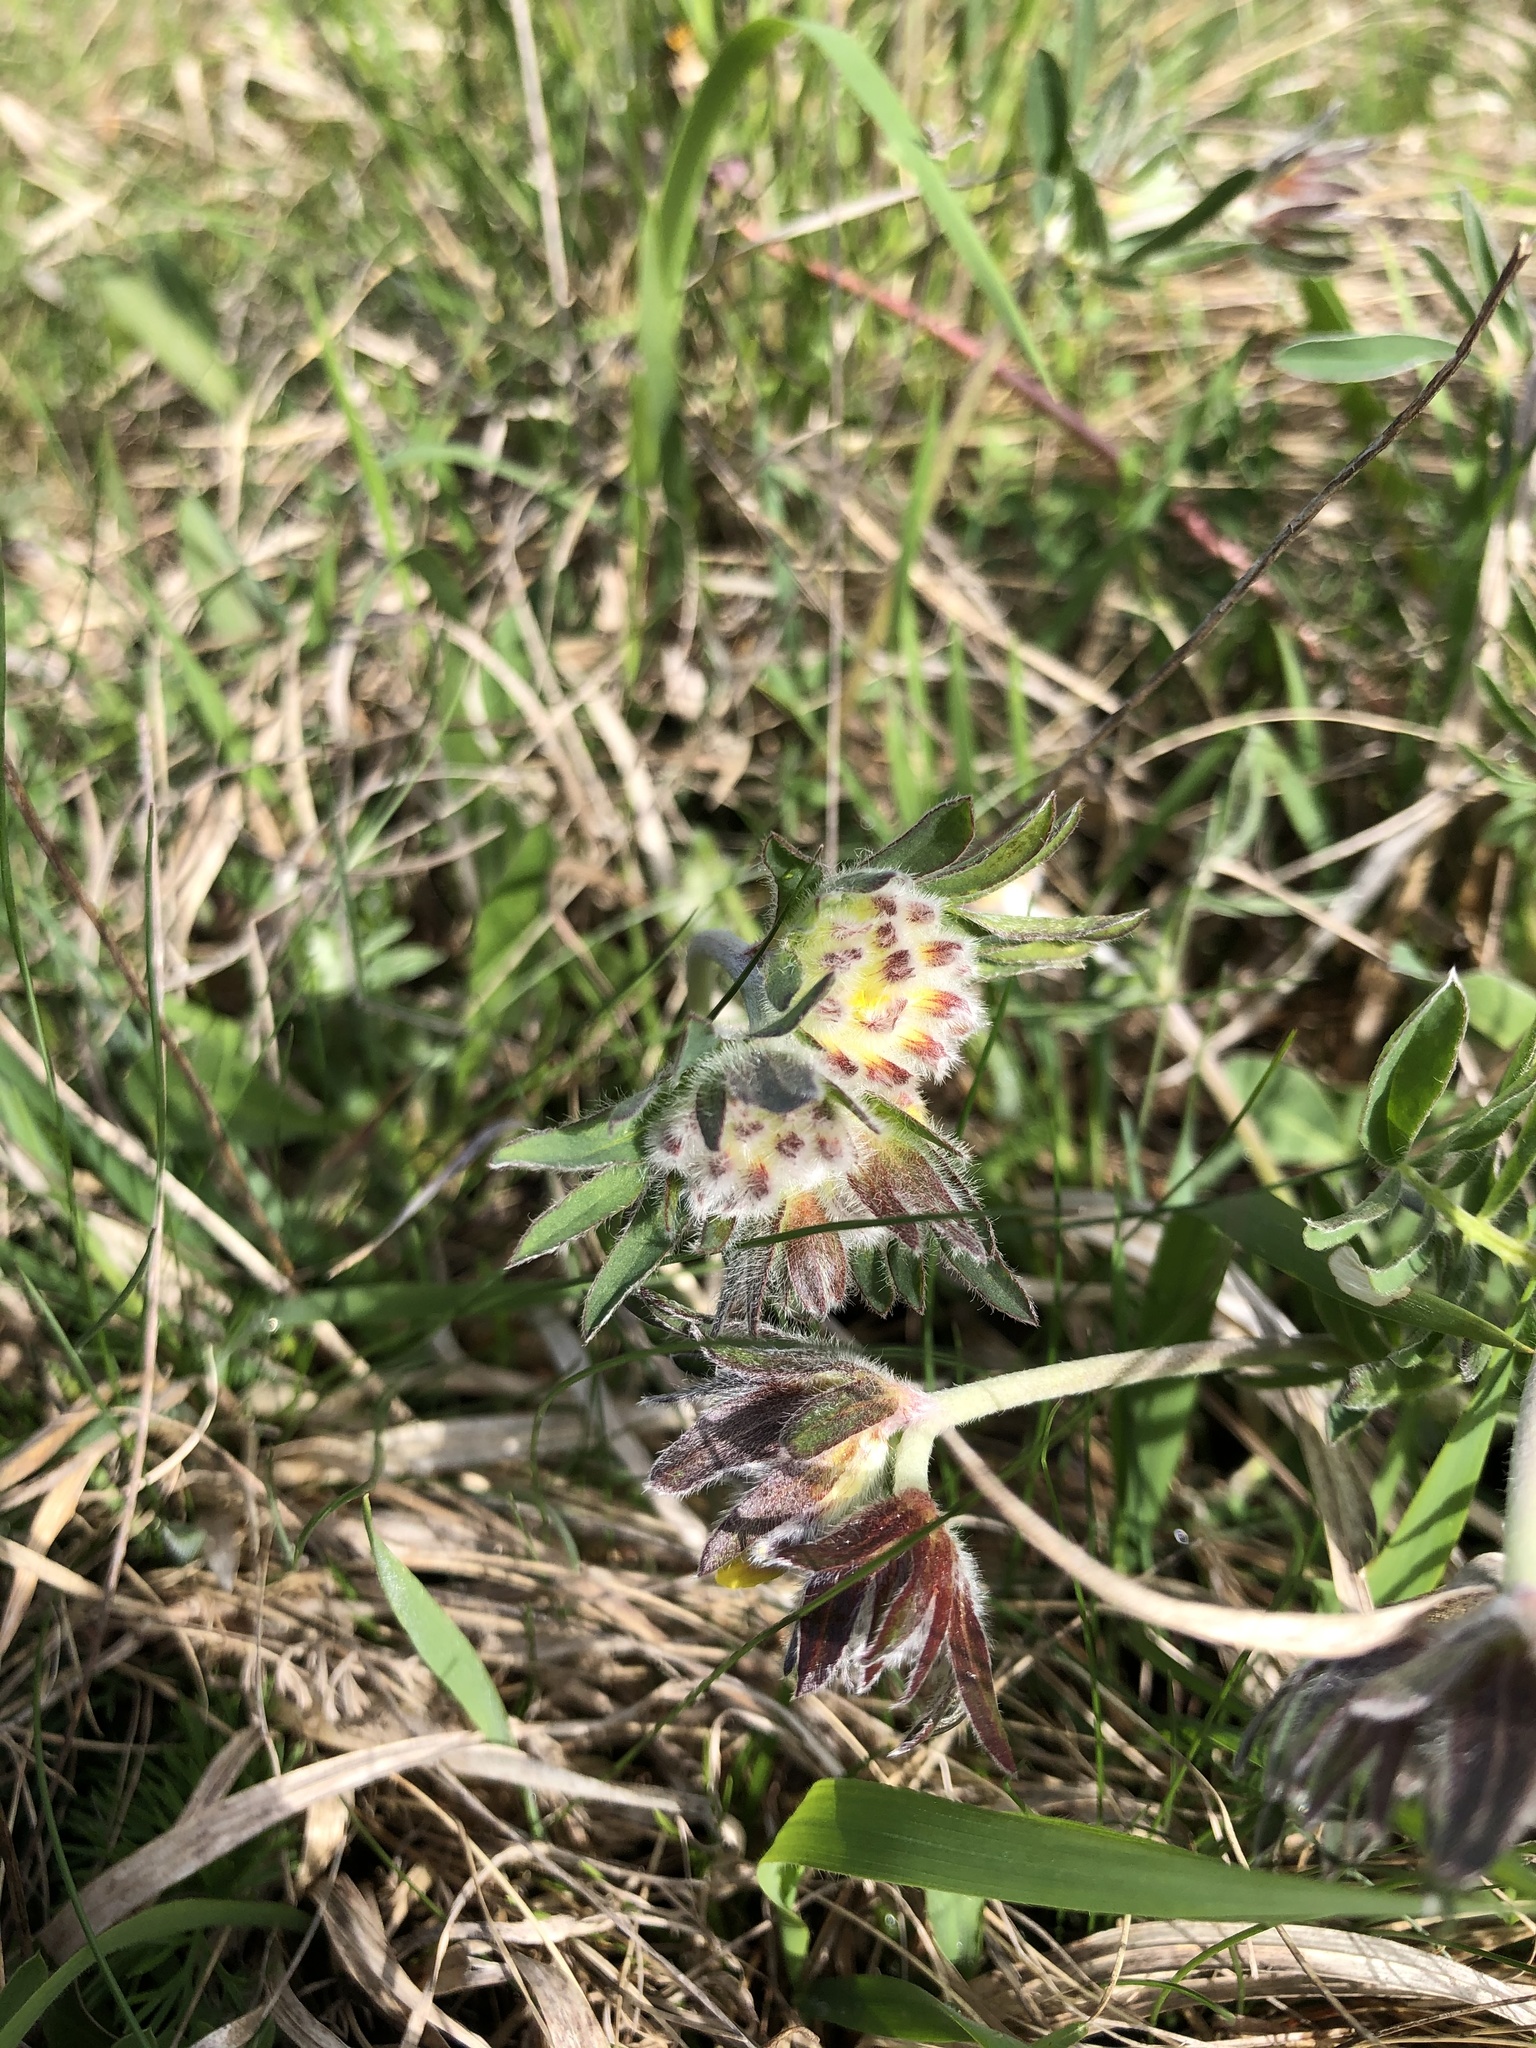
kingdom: Plantae
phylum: Tracheophyta
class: Magnoliopsida
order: Fabales
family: Fabaceae
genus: Anthyllis
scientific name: Anthyllis vulneraria
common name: Kidney vetch
